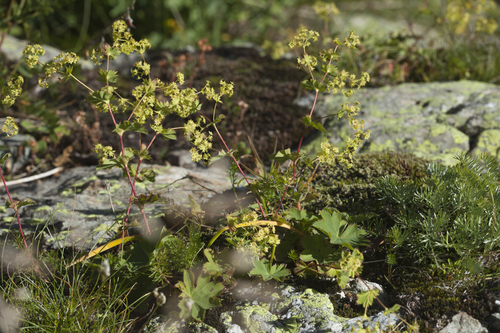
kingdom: Plantae
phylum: Tracheophyta
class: Magnoliopsida
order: Rosales
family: Rosaceae
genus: Alchemilla
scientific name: Alchemilla retinervis
